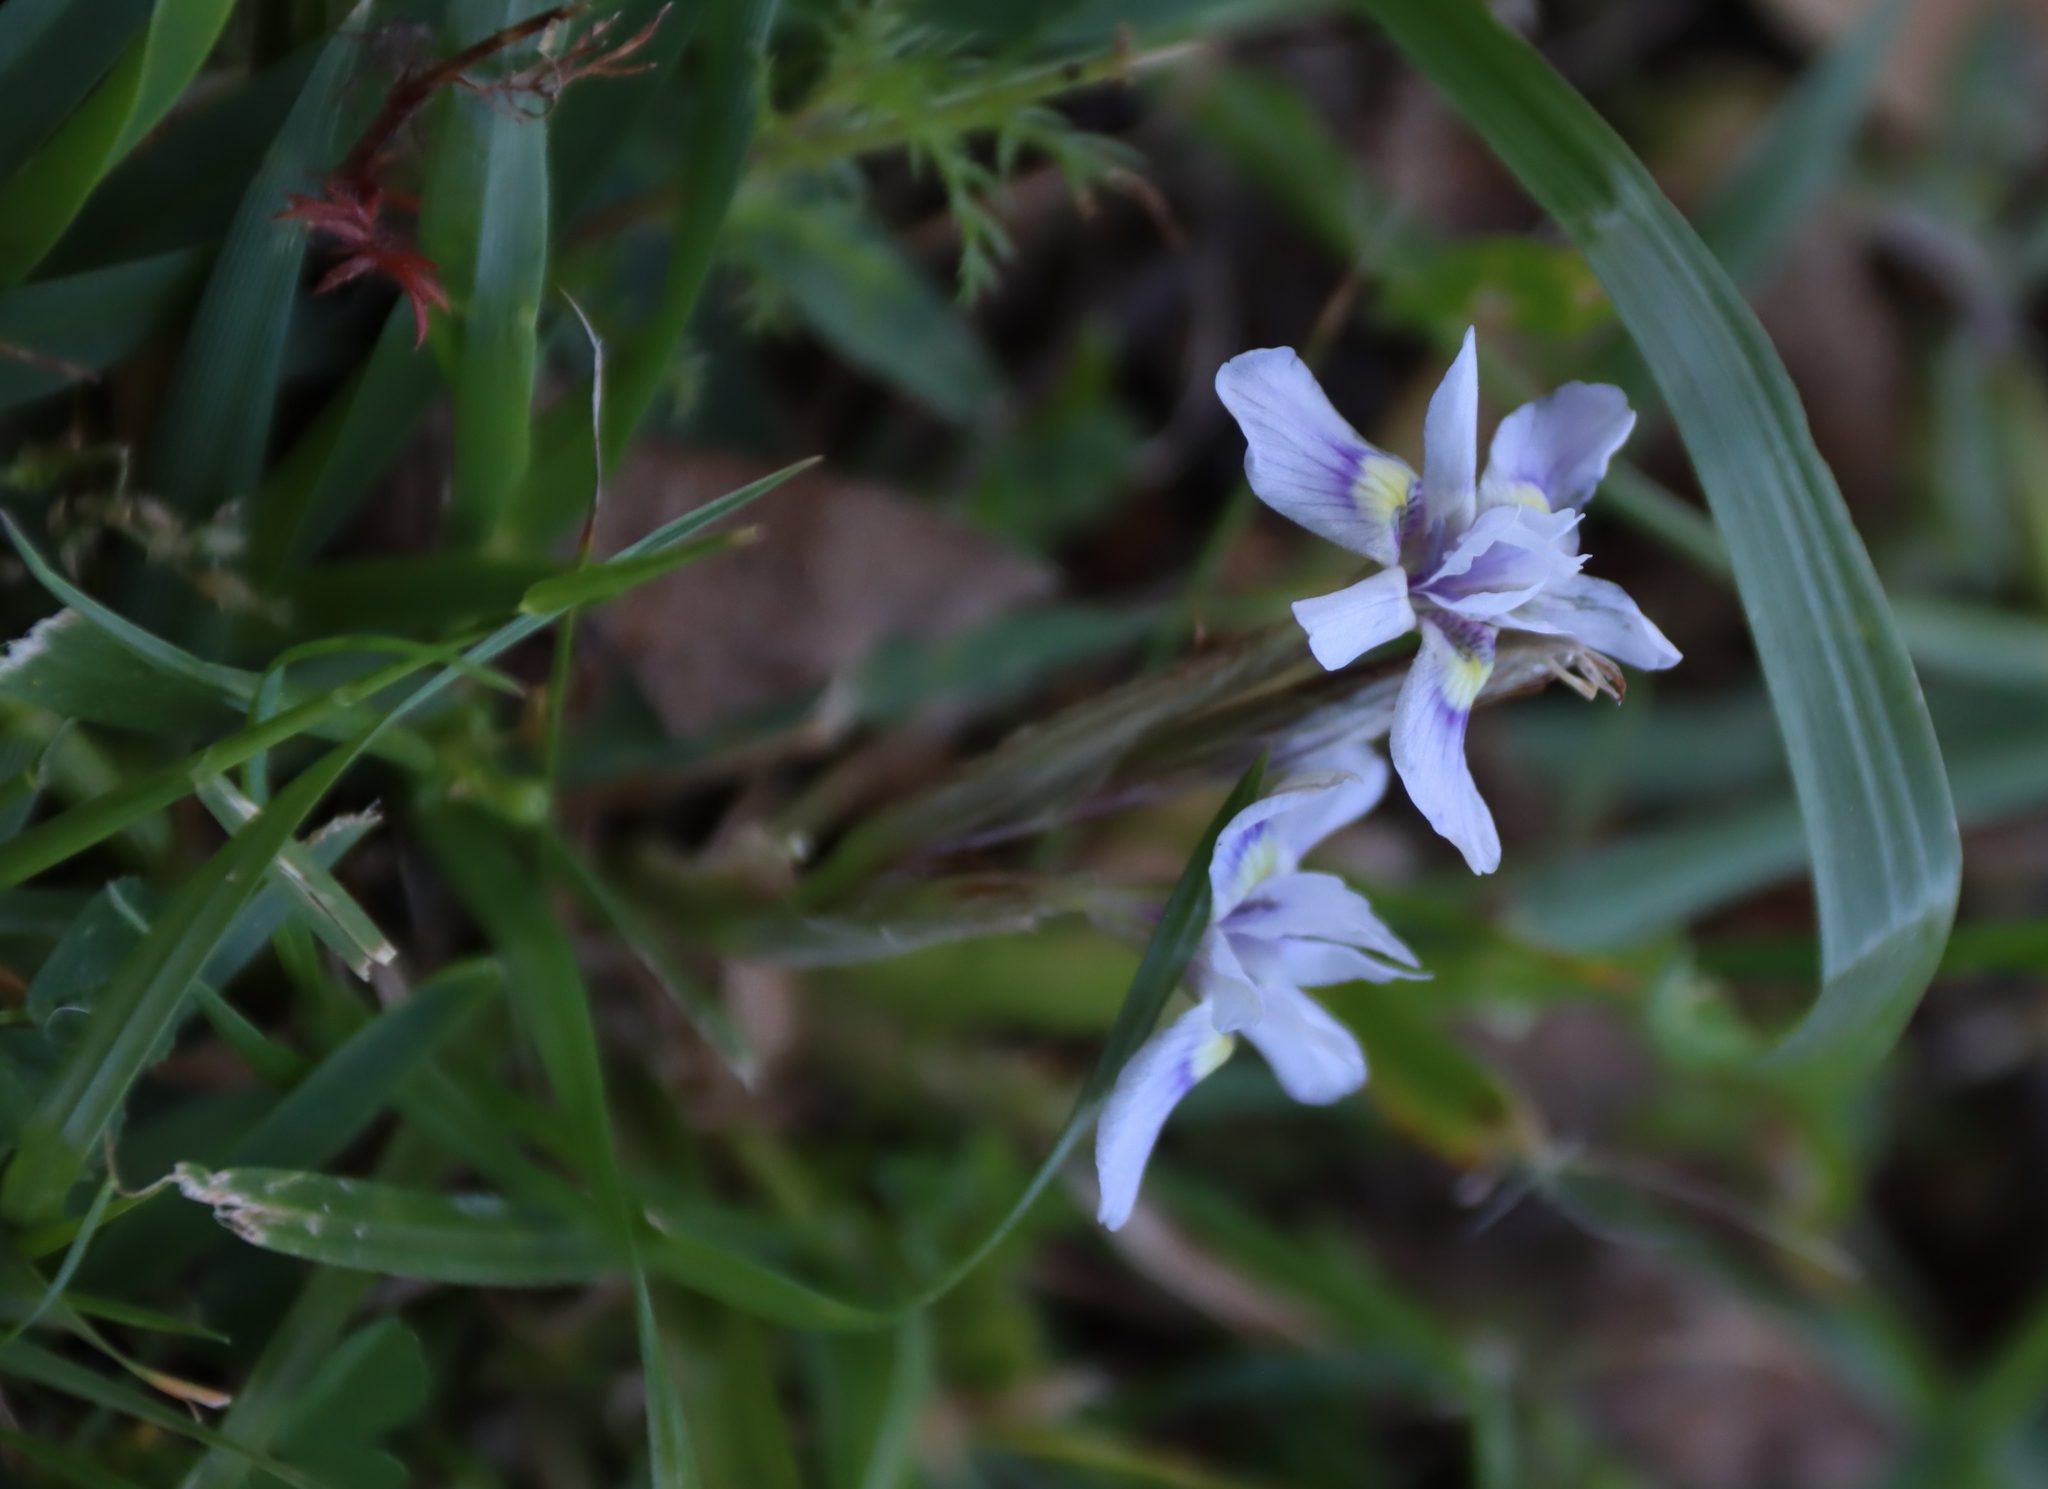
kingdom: Plantae
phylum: Tracheophyta
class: Liliopsida
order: Asparagales
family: Iridaceae
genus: Moraea
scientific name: Moraea setifolia
